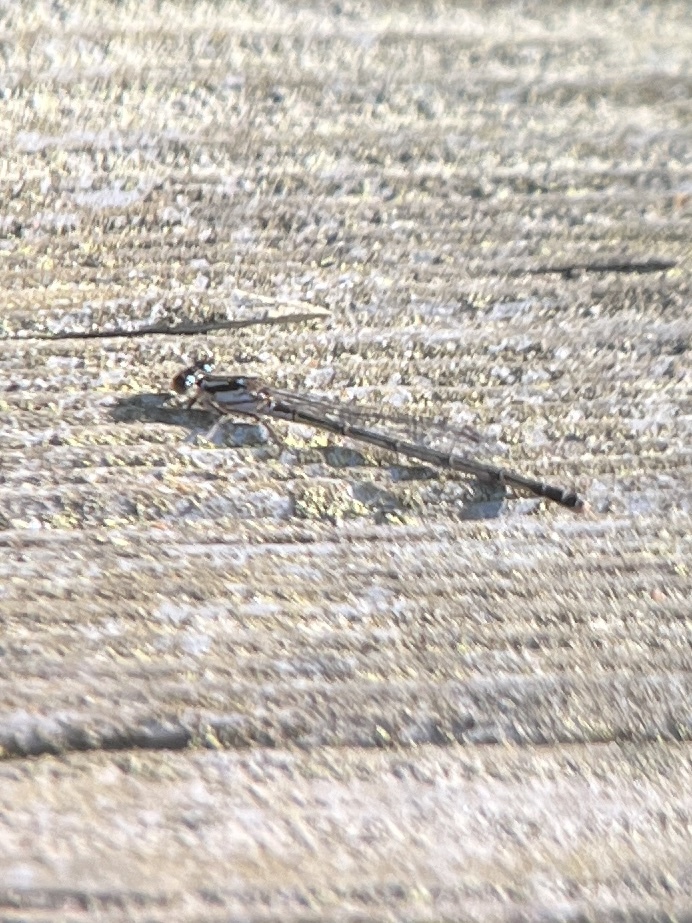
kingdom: Animalia
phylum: Arthropoda
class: Insecta
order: Odonata
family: Coenagrionidae
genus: Ischnura
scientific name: Ischnura posita
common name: Fragile forktail
